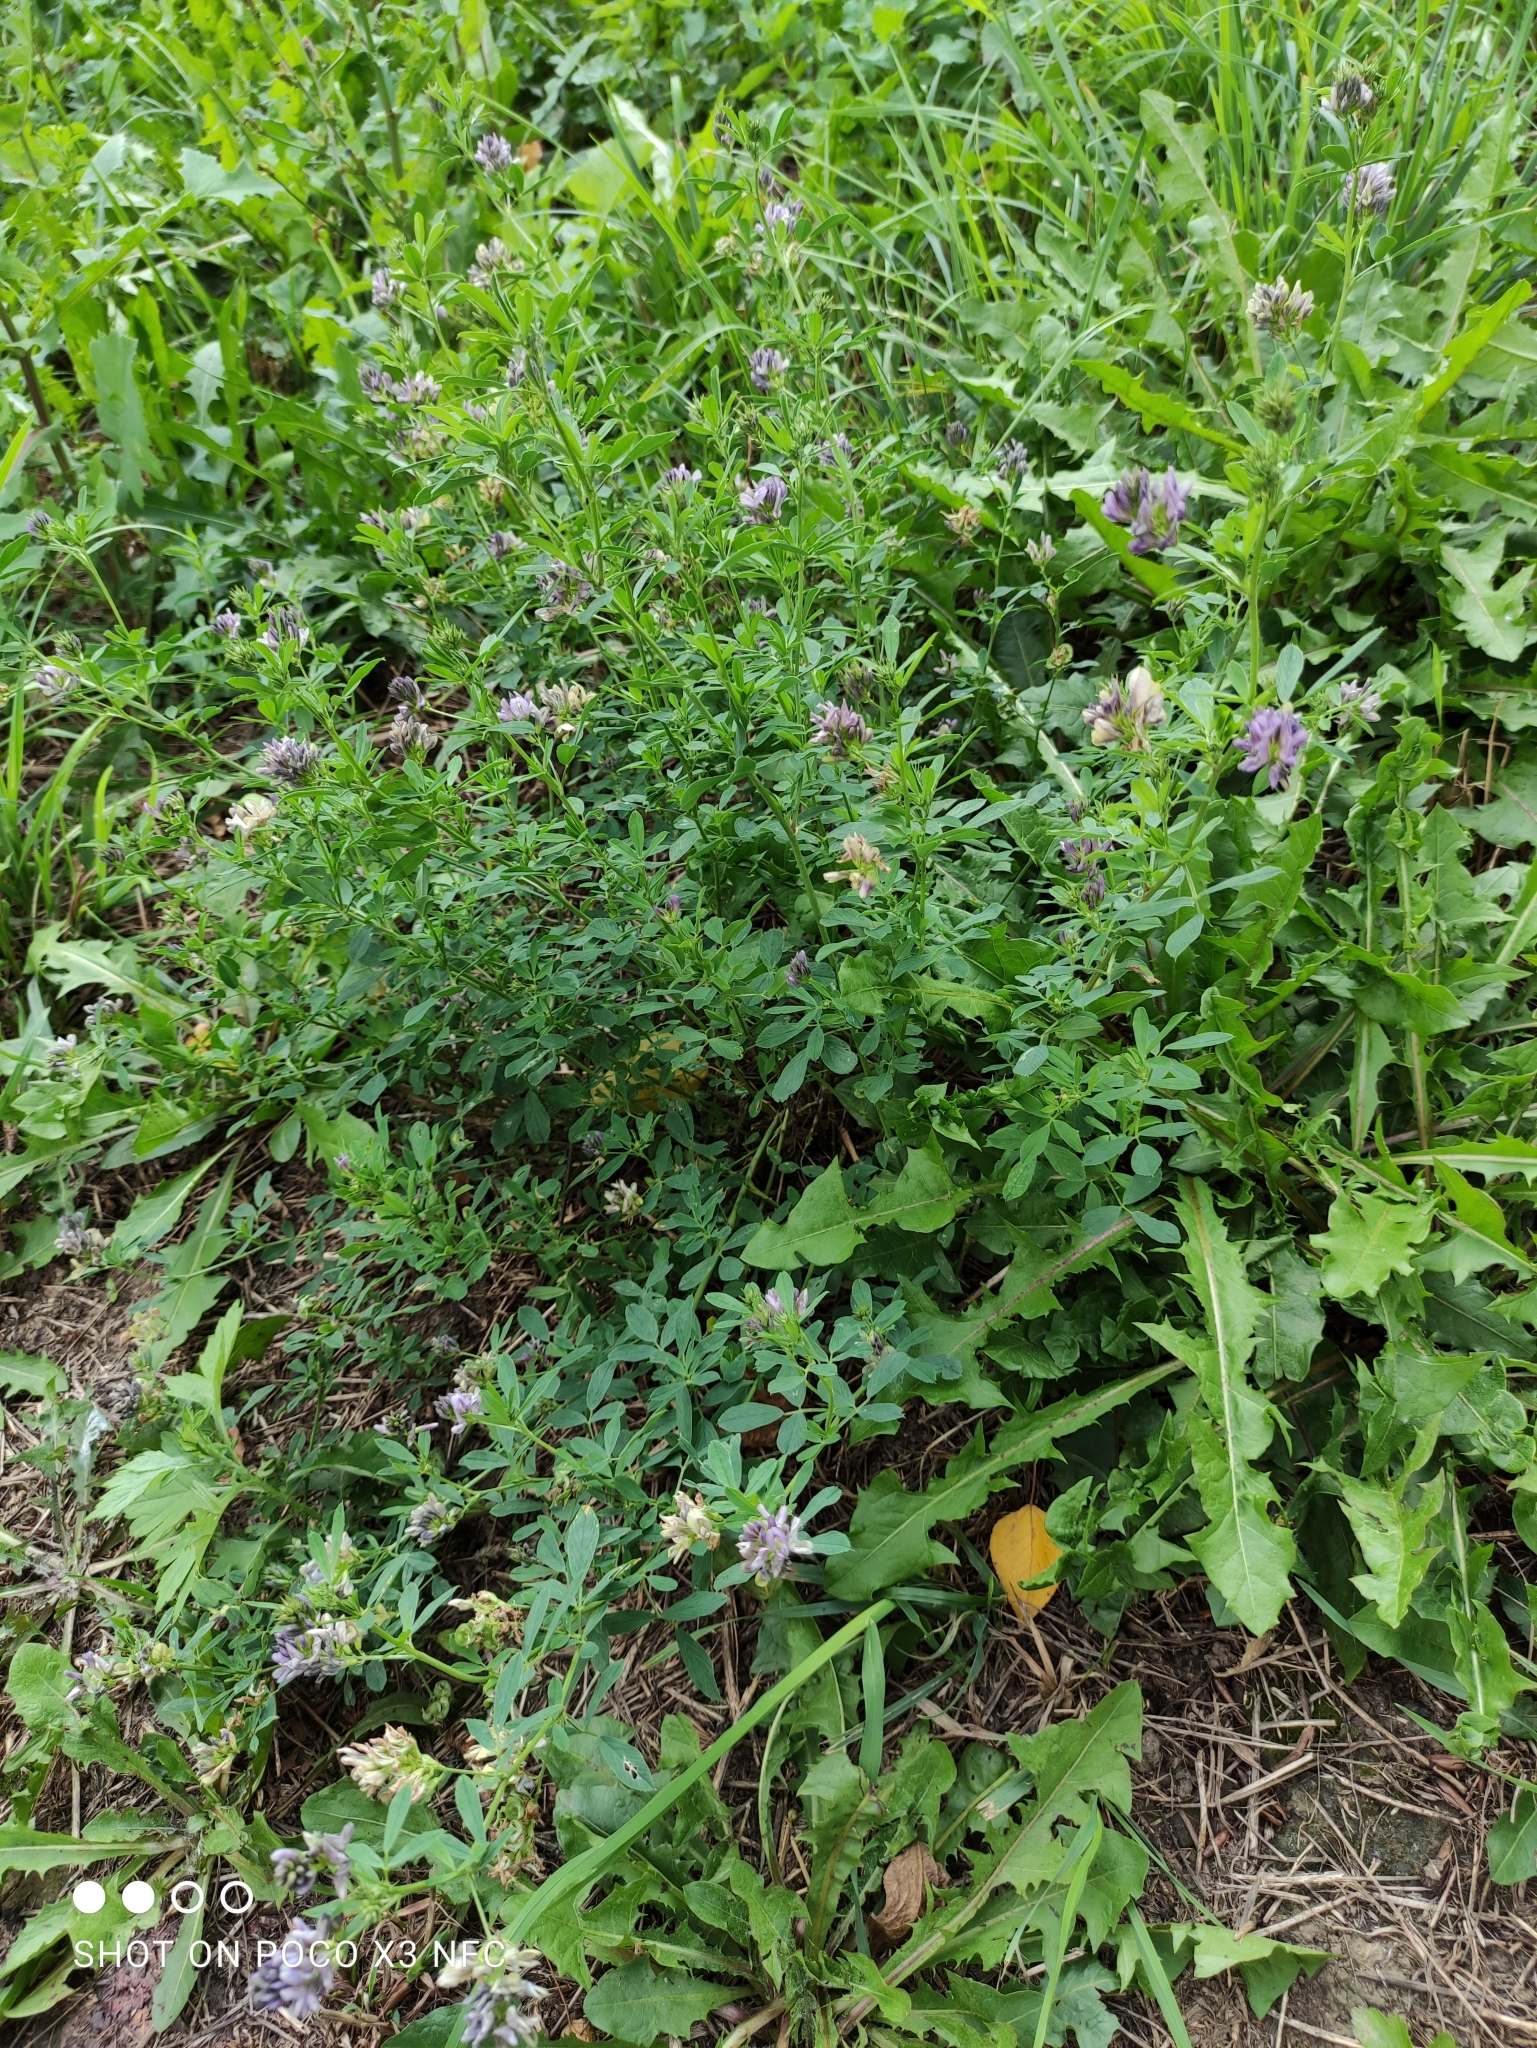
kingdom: Plantae
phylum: Tracheophyta
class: Magnoliopsida
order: Fabales
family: Fabaceae
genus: Medicago
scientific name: Medicago varia
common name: Sand lucerne
